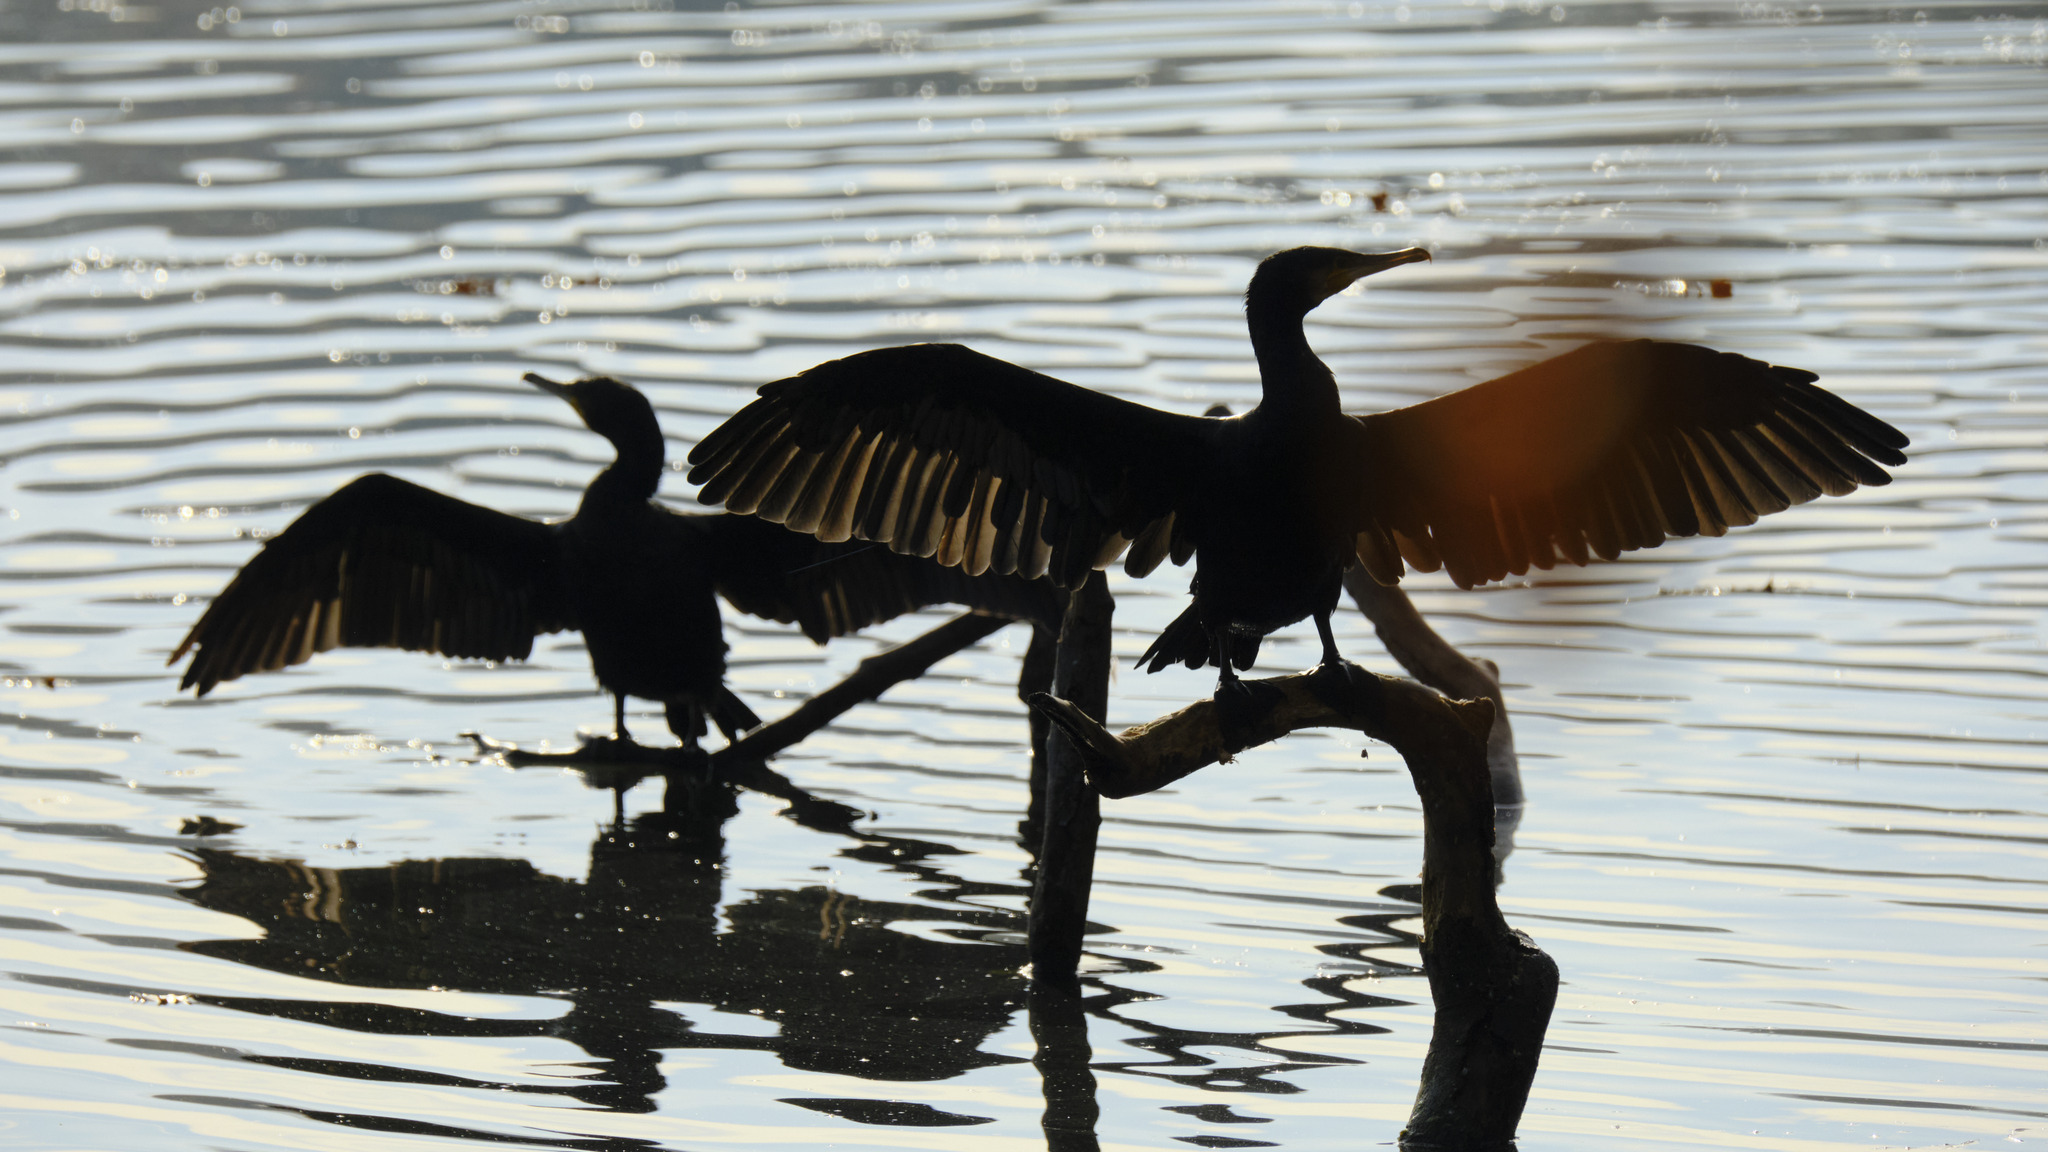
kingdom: Animalia
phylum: Chordata
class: Aves
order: Suliformes
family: Phalacrocoracidae
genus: Phalacrocorax
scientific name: Phalacrocorax carbo
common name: Great cormorant
